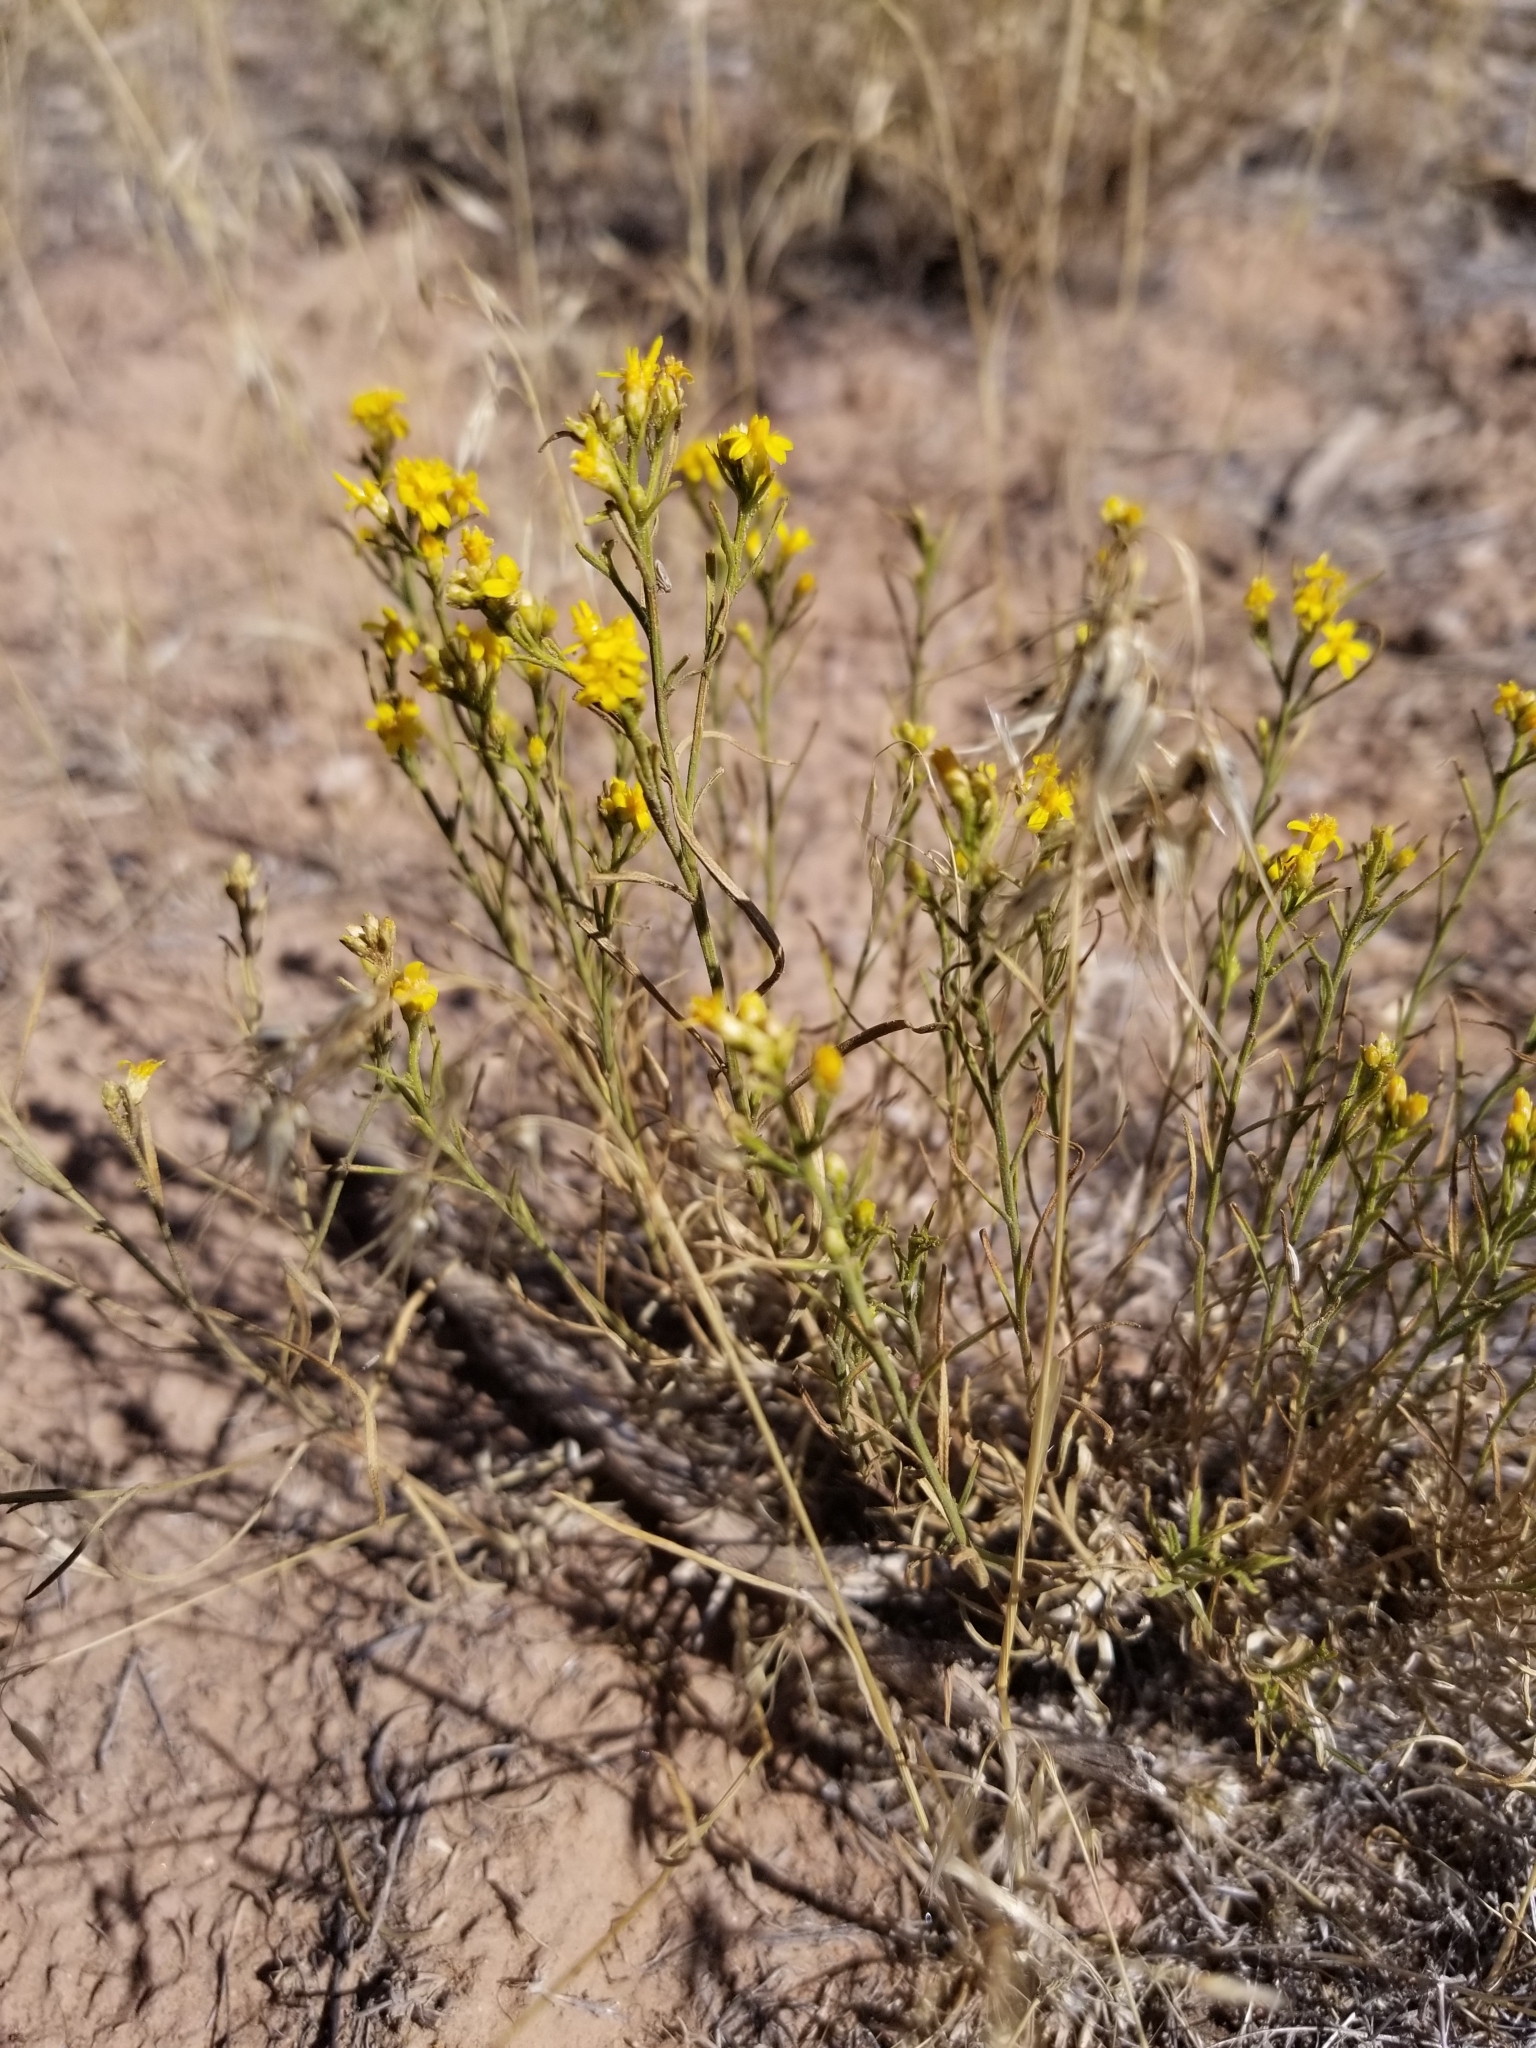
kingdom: Plantae
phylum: Tracheophyta
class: Magnoliopsida
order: Asterales
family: Asteraceae
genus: Gutierrezia
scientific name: Gutierrezia sarothrae
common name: Broom snakeweed
